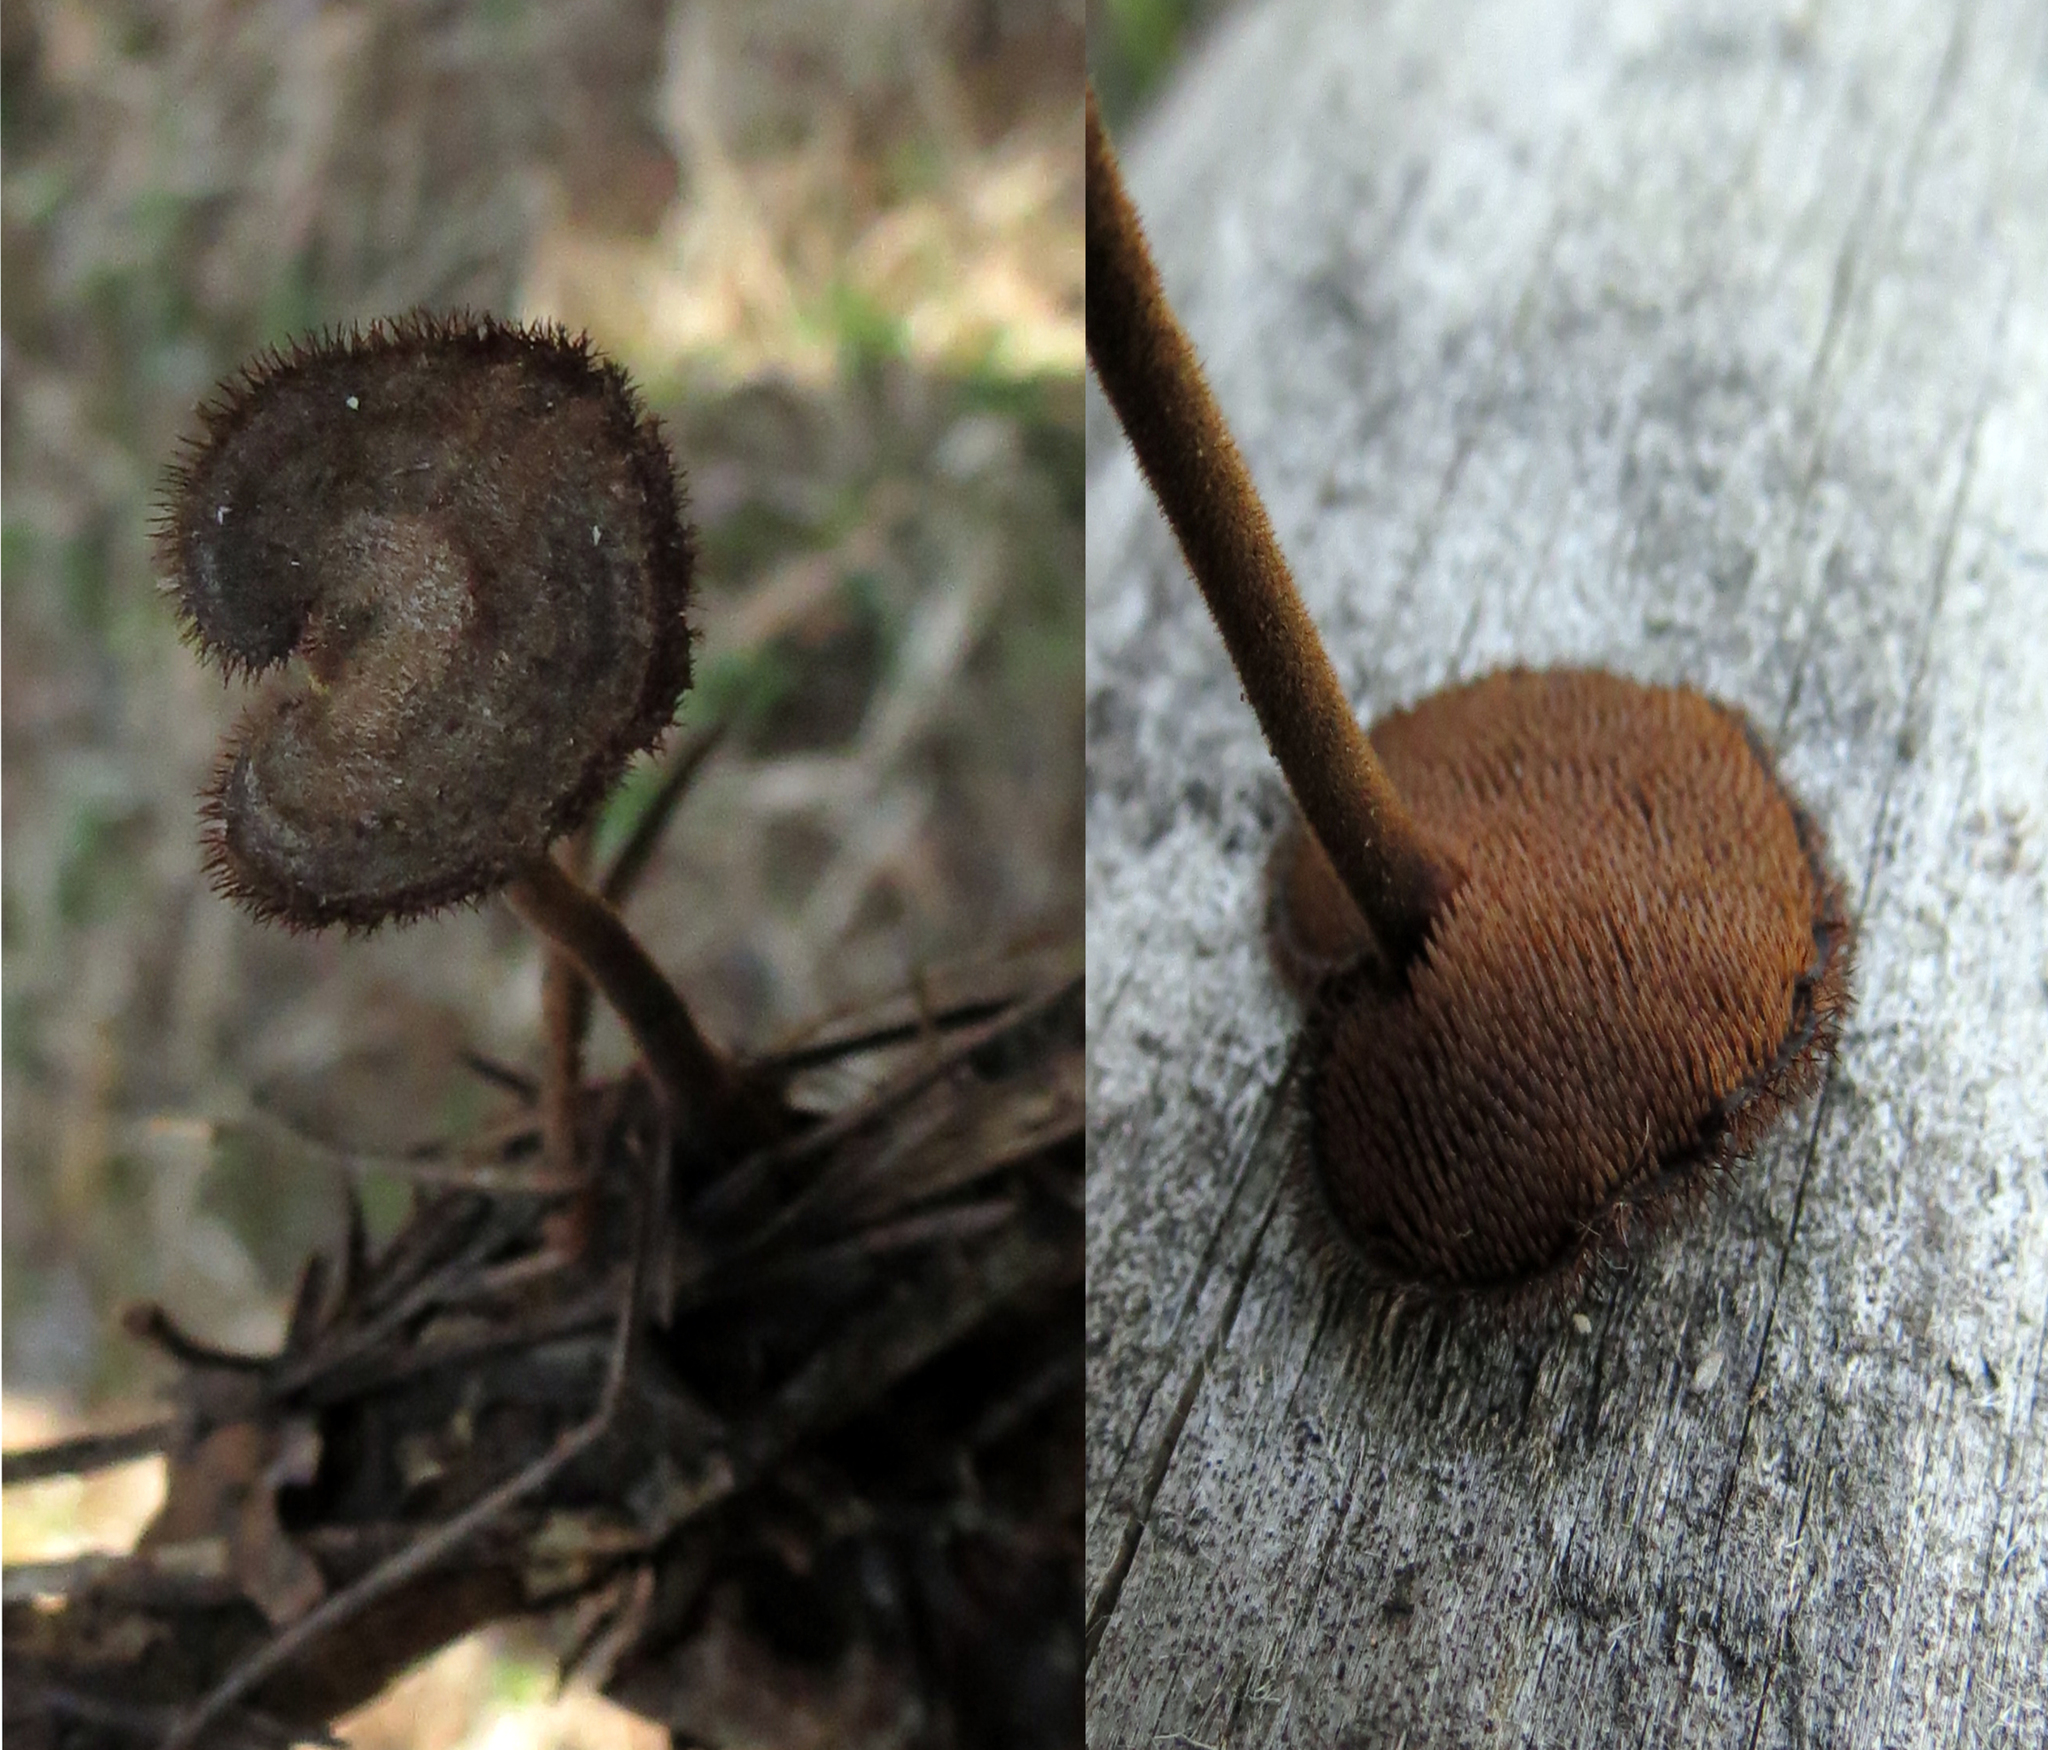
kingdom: Fungi
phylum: Basidiomycota
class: Agaricomycetes
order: Russulales
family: Auriscalpiaceae
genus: Auriscalpium
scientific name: Auriscalpium vulgare
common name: Earpick fungus
